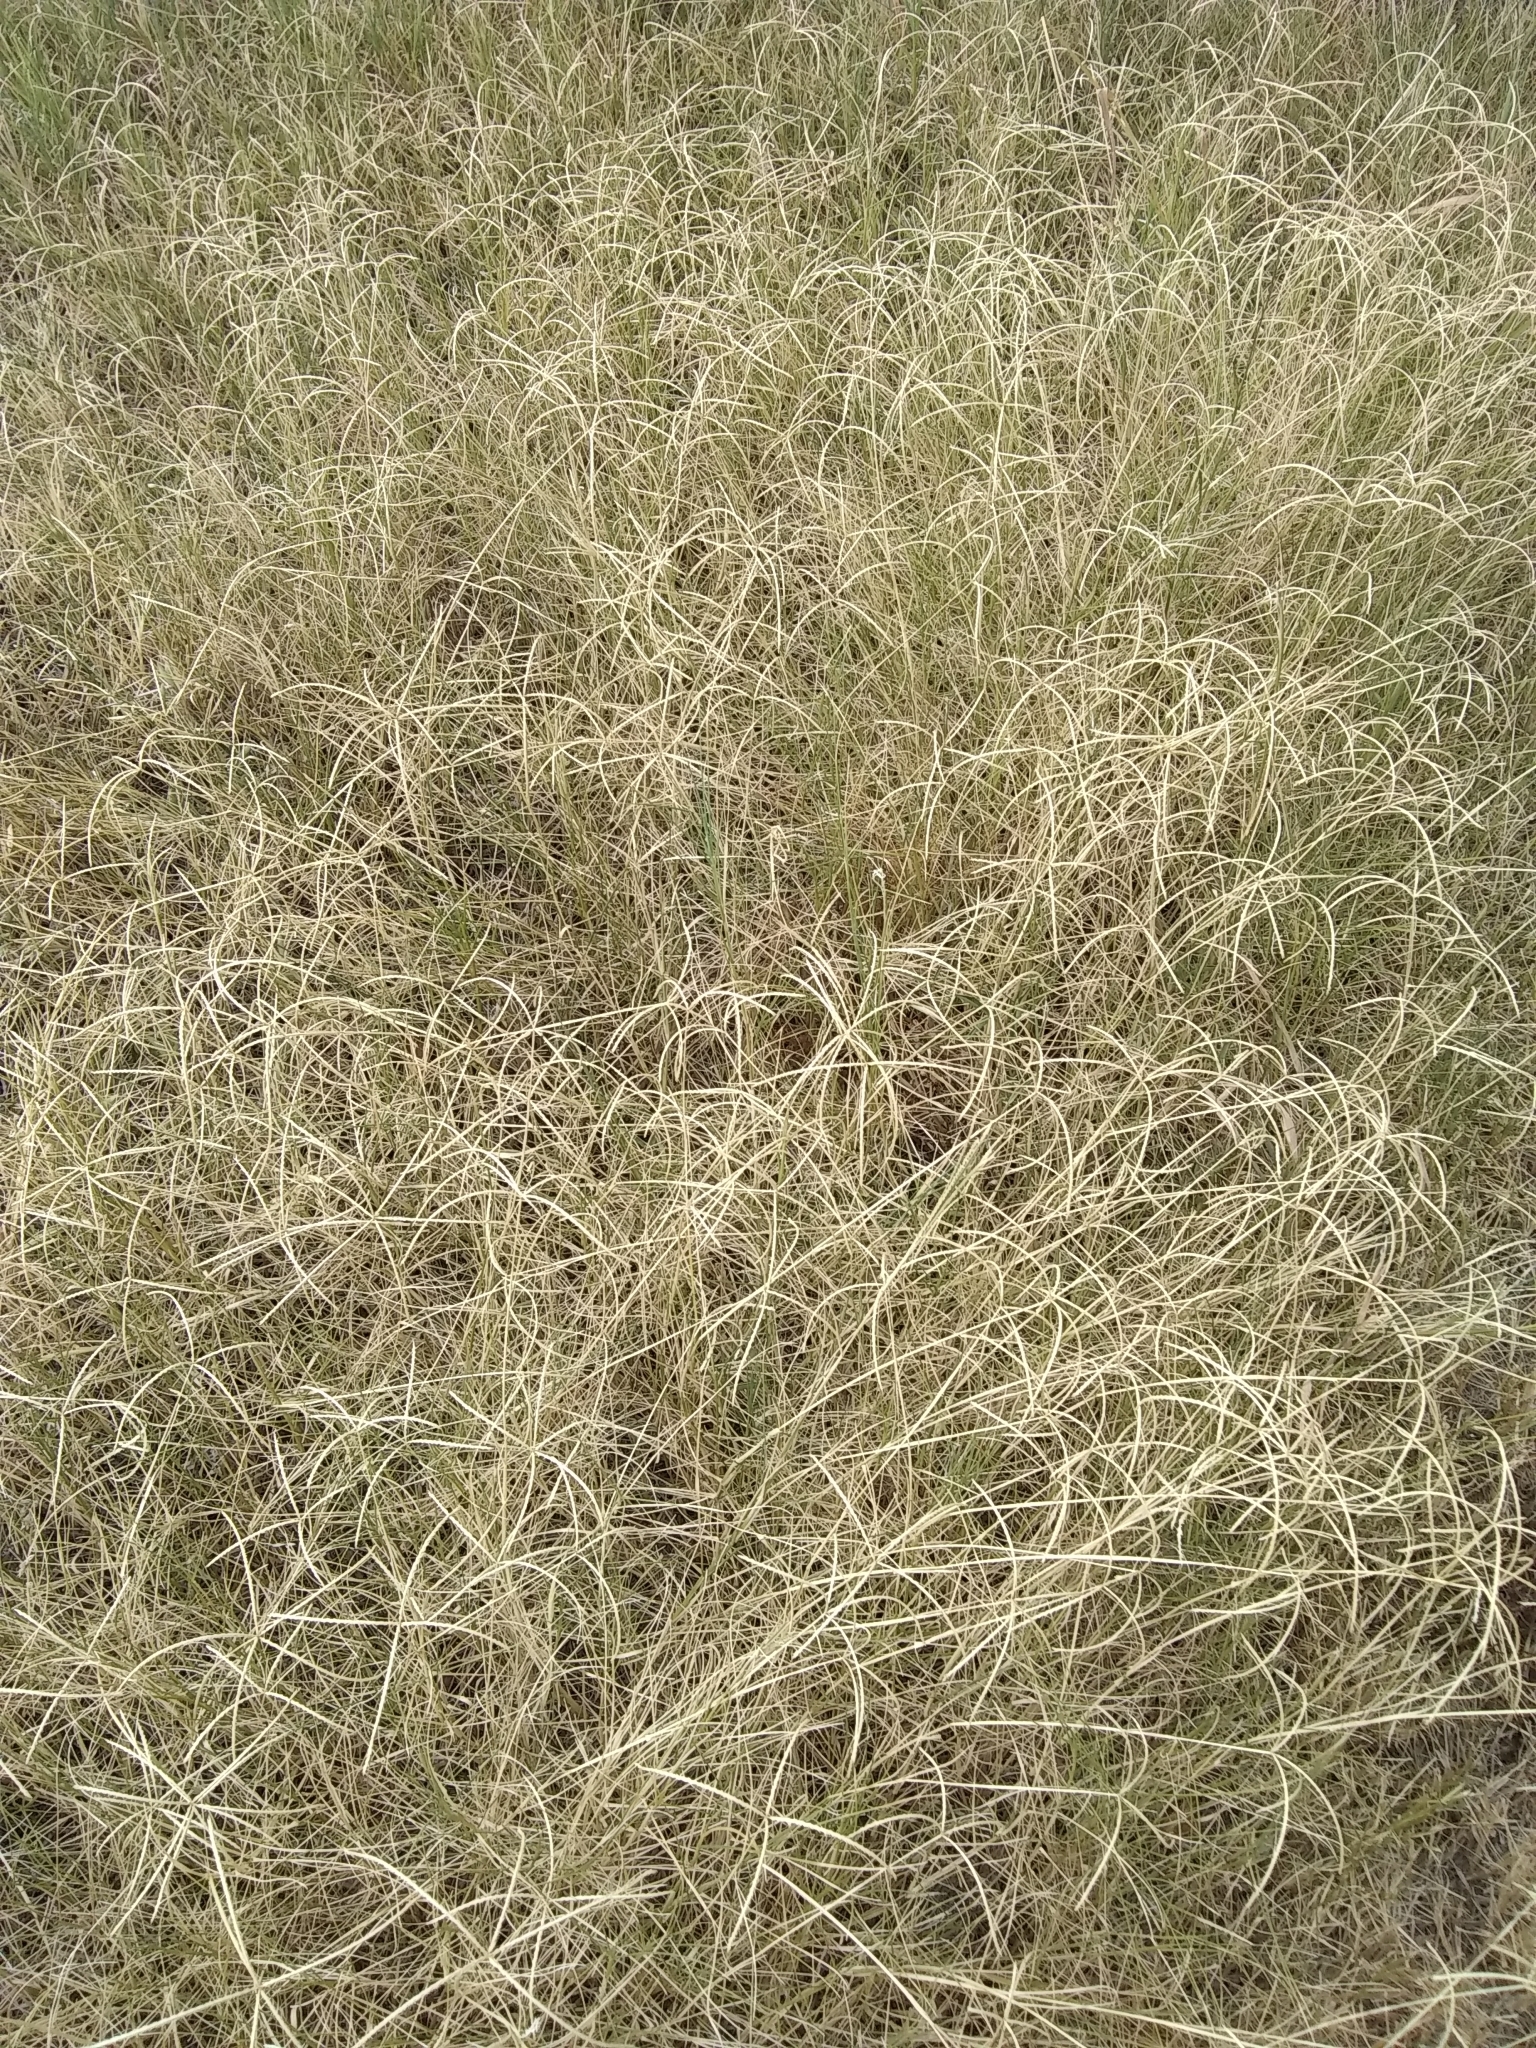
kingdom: Plantae
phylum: Tracheophyta
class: Liliopsida
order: Poales
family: Poaceae
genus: Cynodon
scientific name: Cynodon dactylon
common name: Bermuda grass
